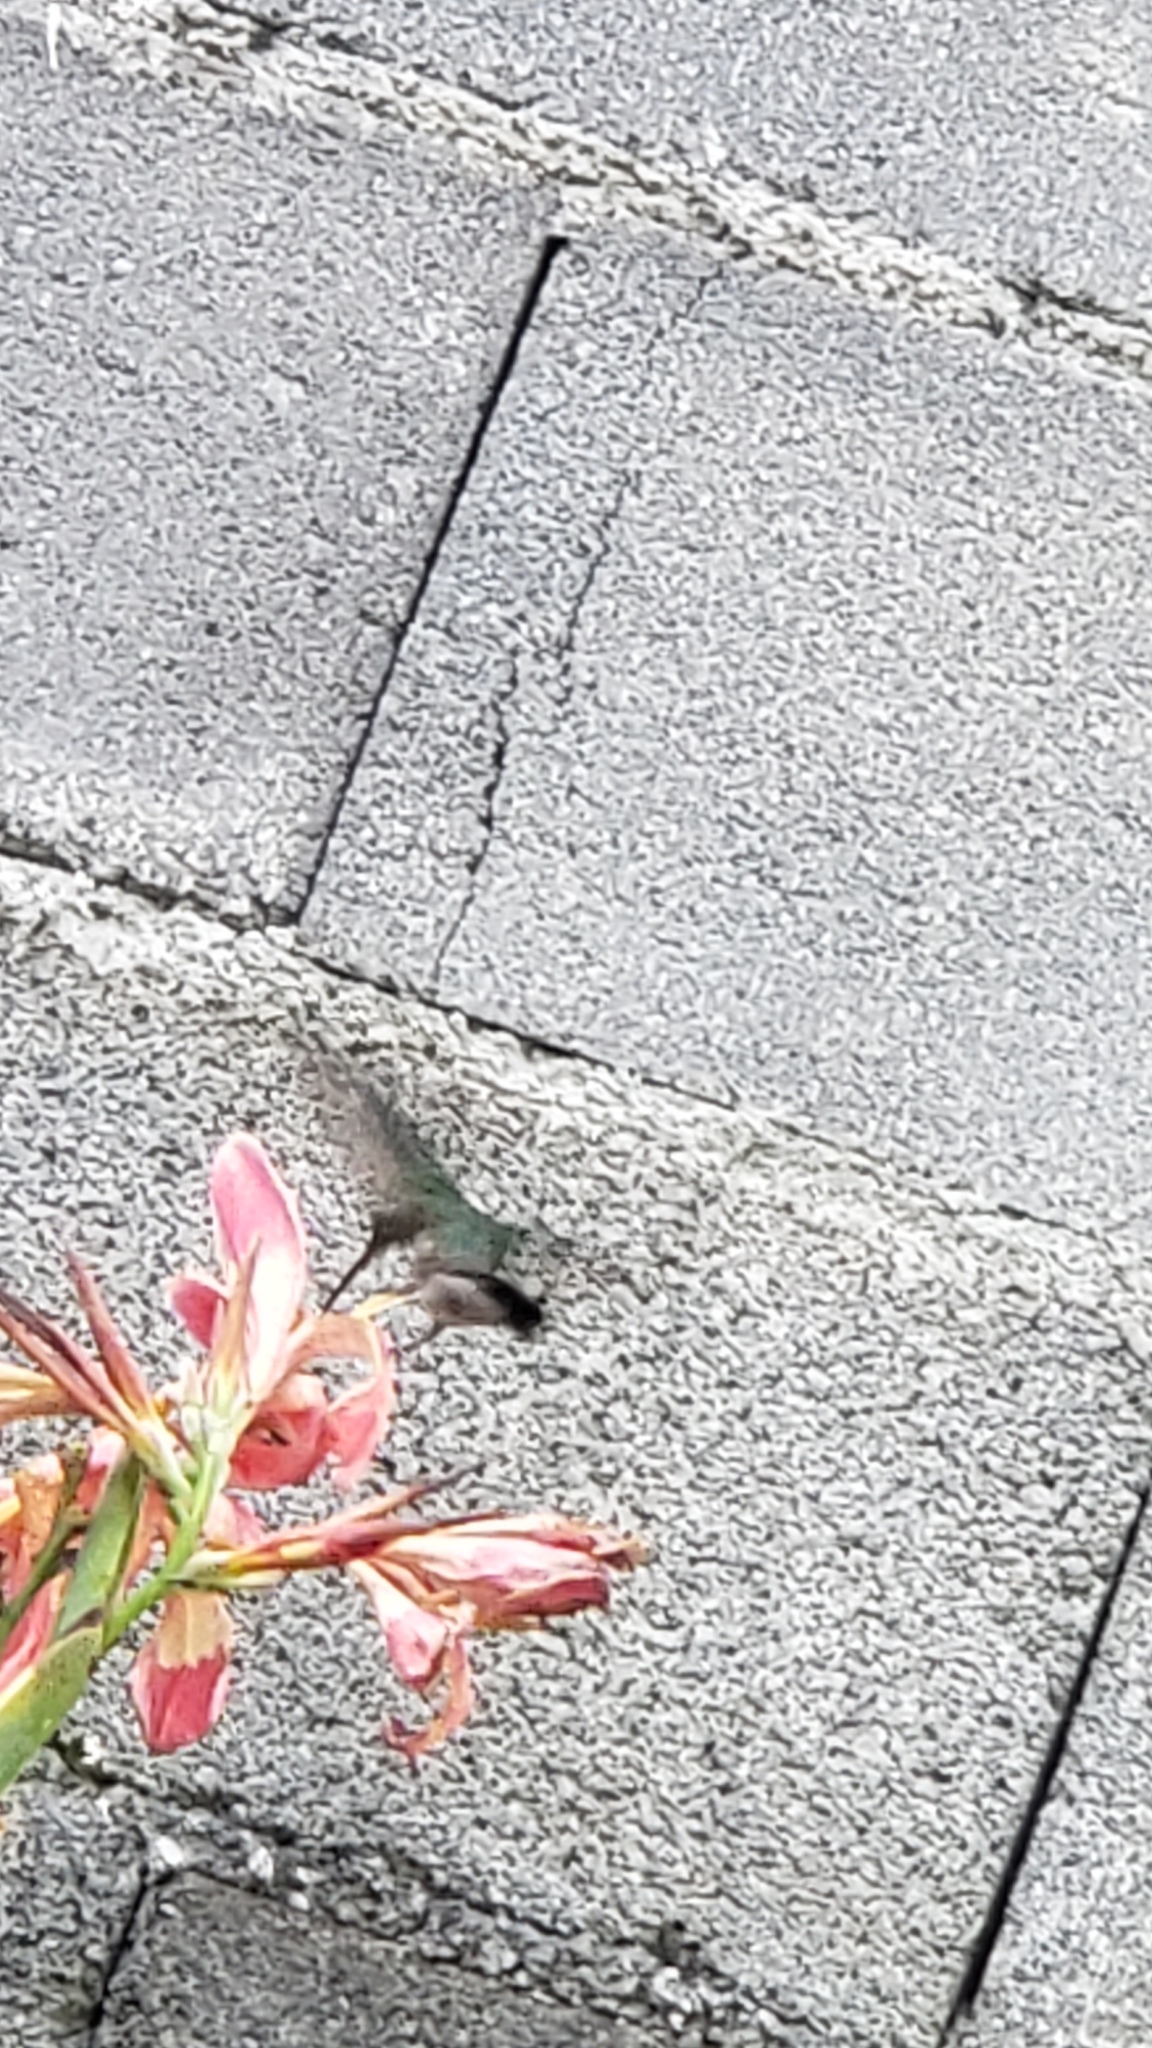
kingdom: Animalia
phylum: Chordata
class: Aves
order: Apodiformes
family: Trochilidae
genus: Cynanthus
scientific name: Cynanthus latirostris
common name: Broad-billed hummingbird
